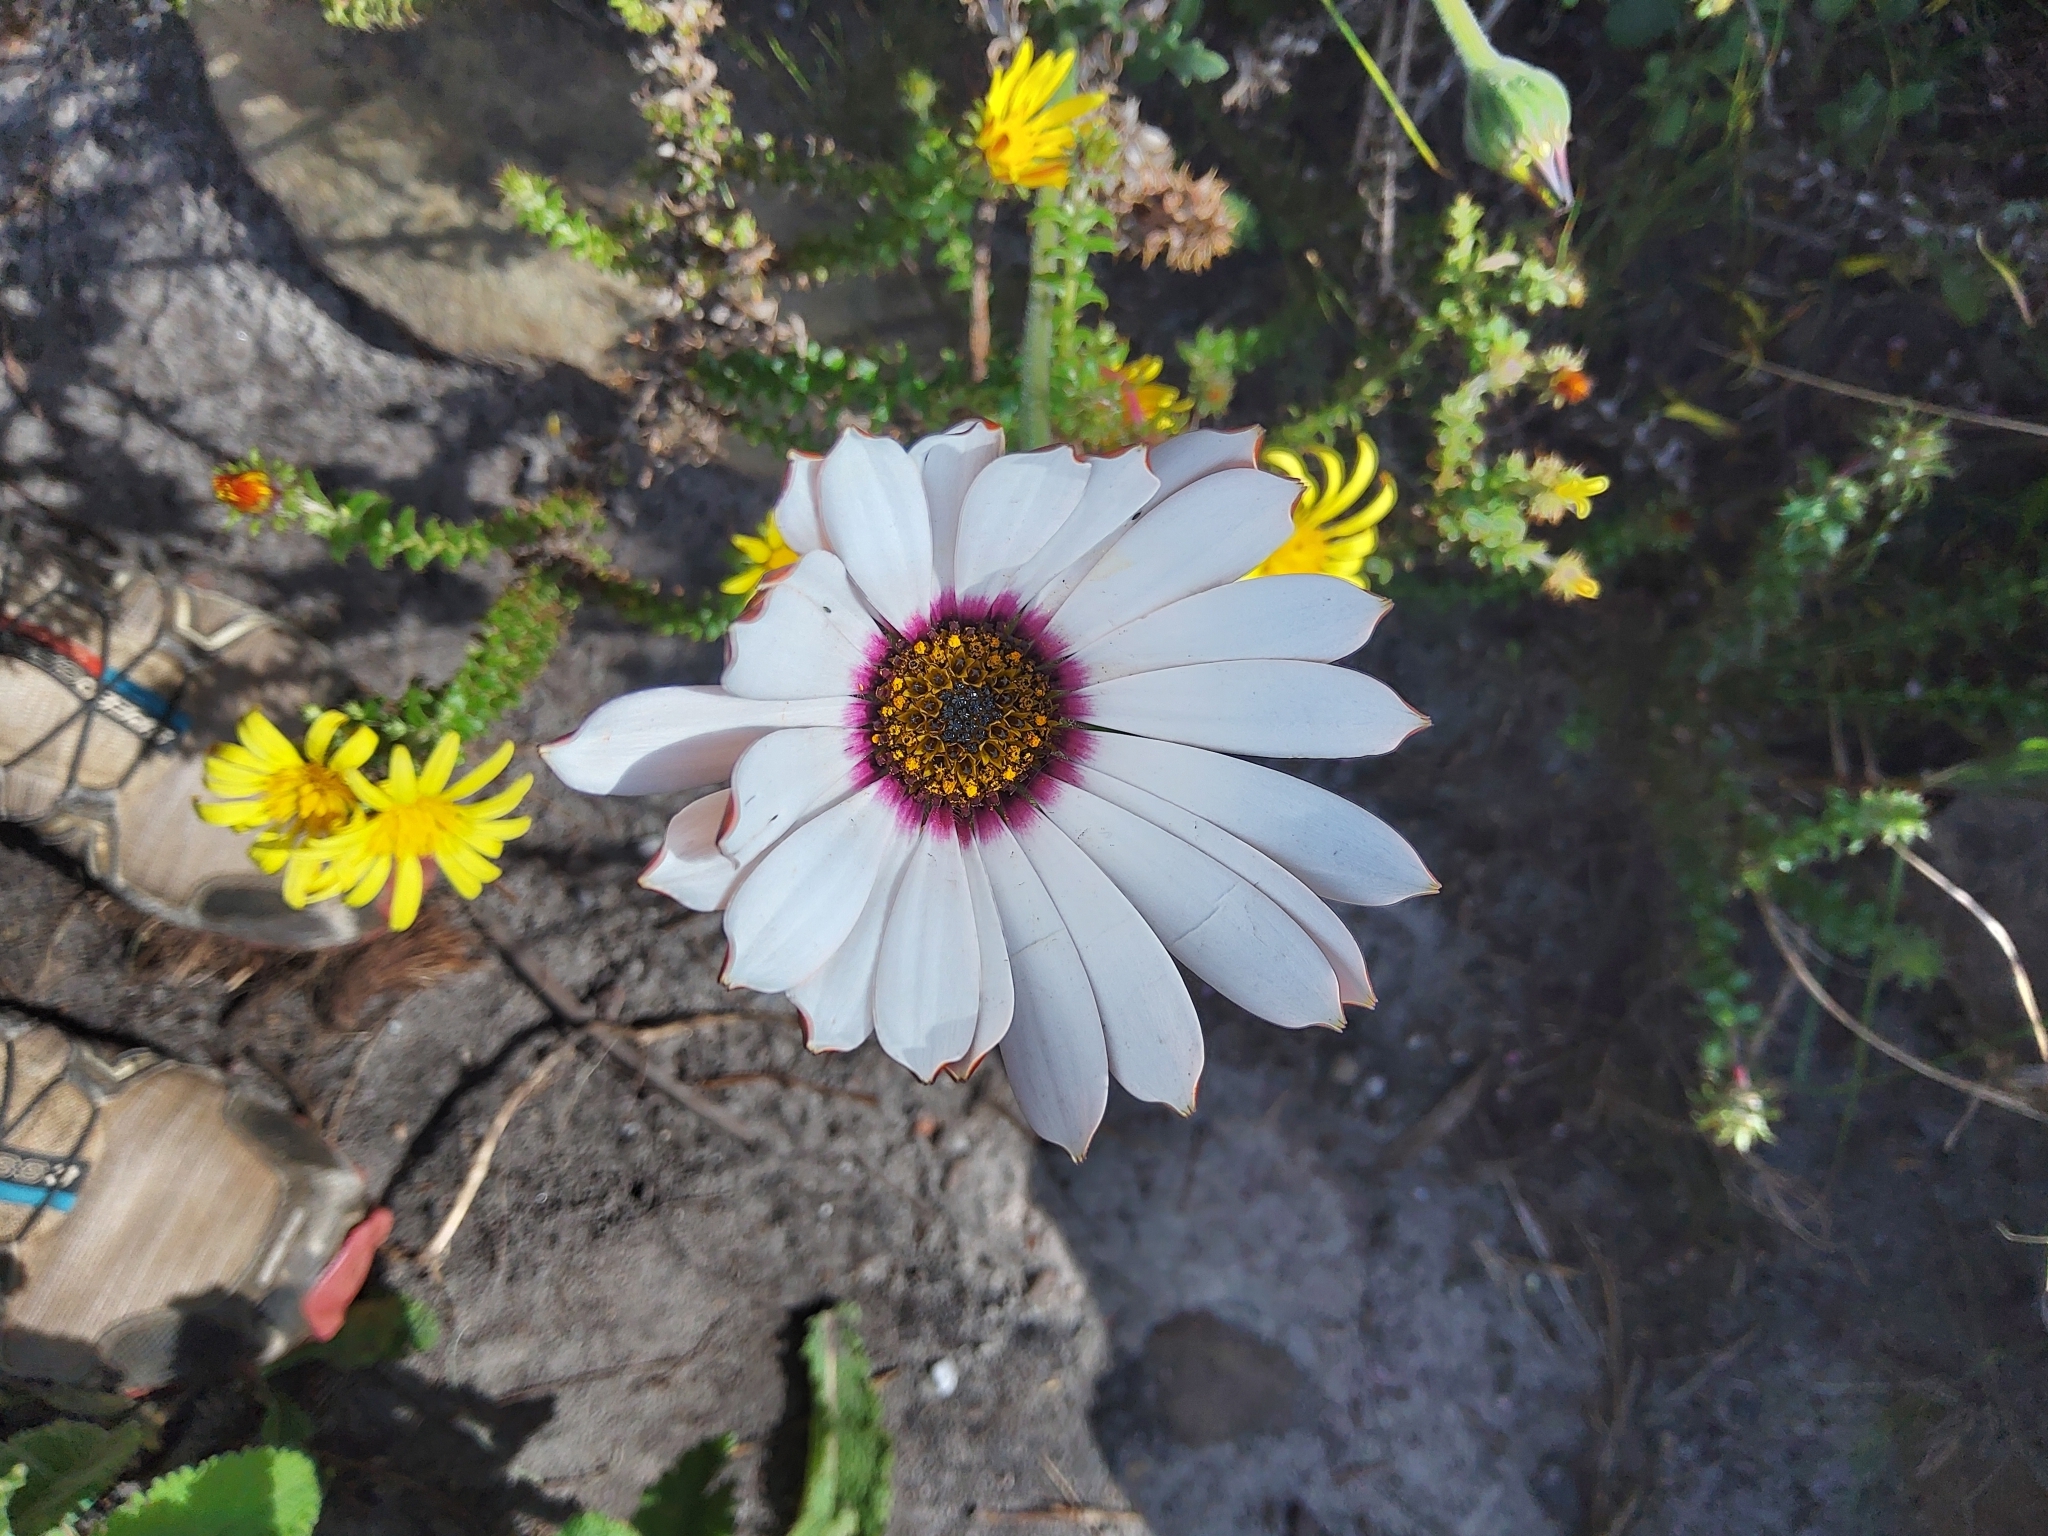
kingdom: Plantae
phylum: Tracheophyta
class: Magnoliopsida
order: Asterales
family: Asteraceae
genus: Dimorphotheca
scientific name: Dimorphotheca nudicaulis
